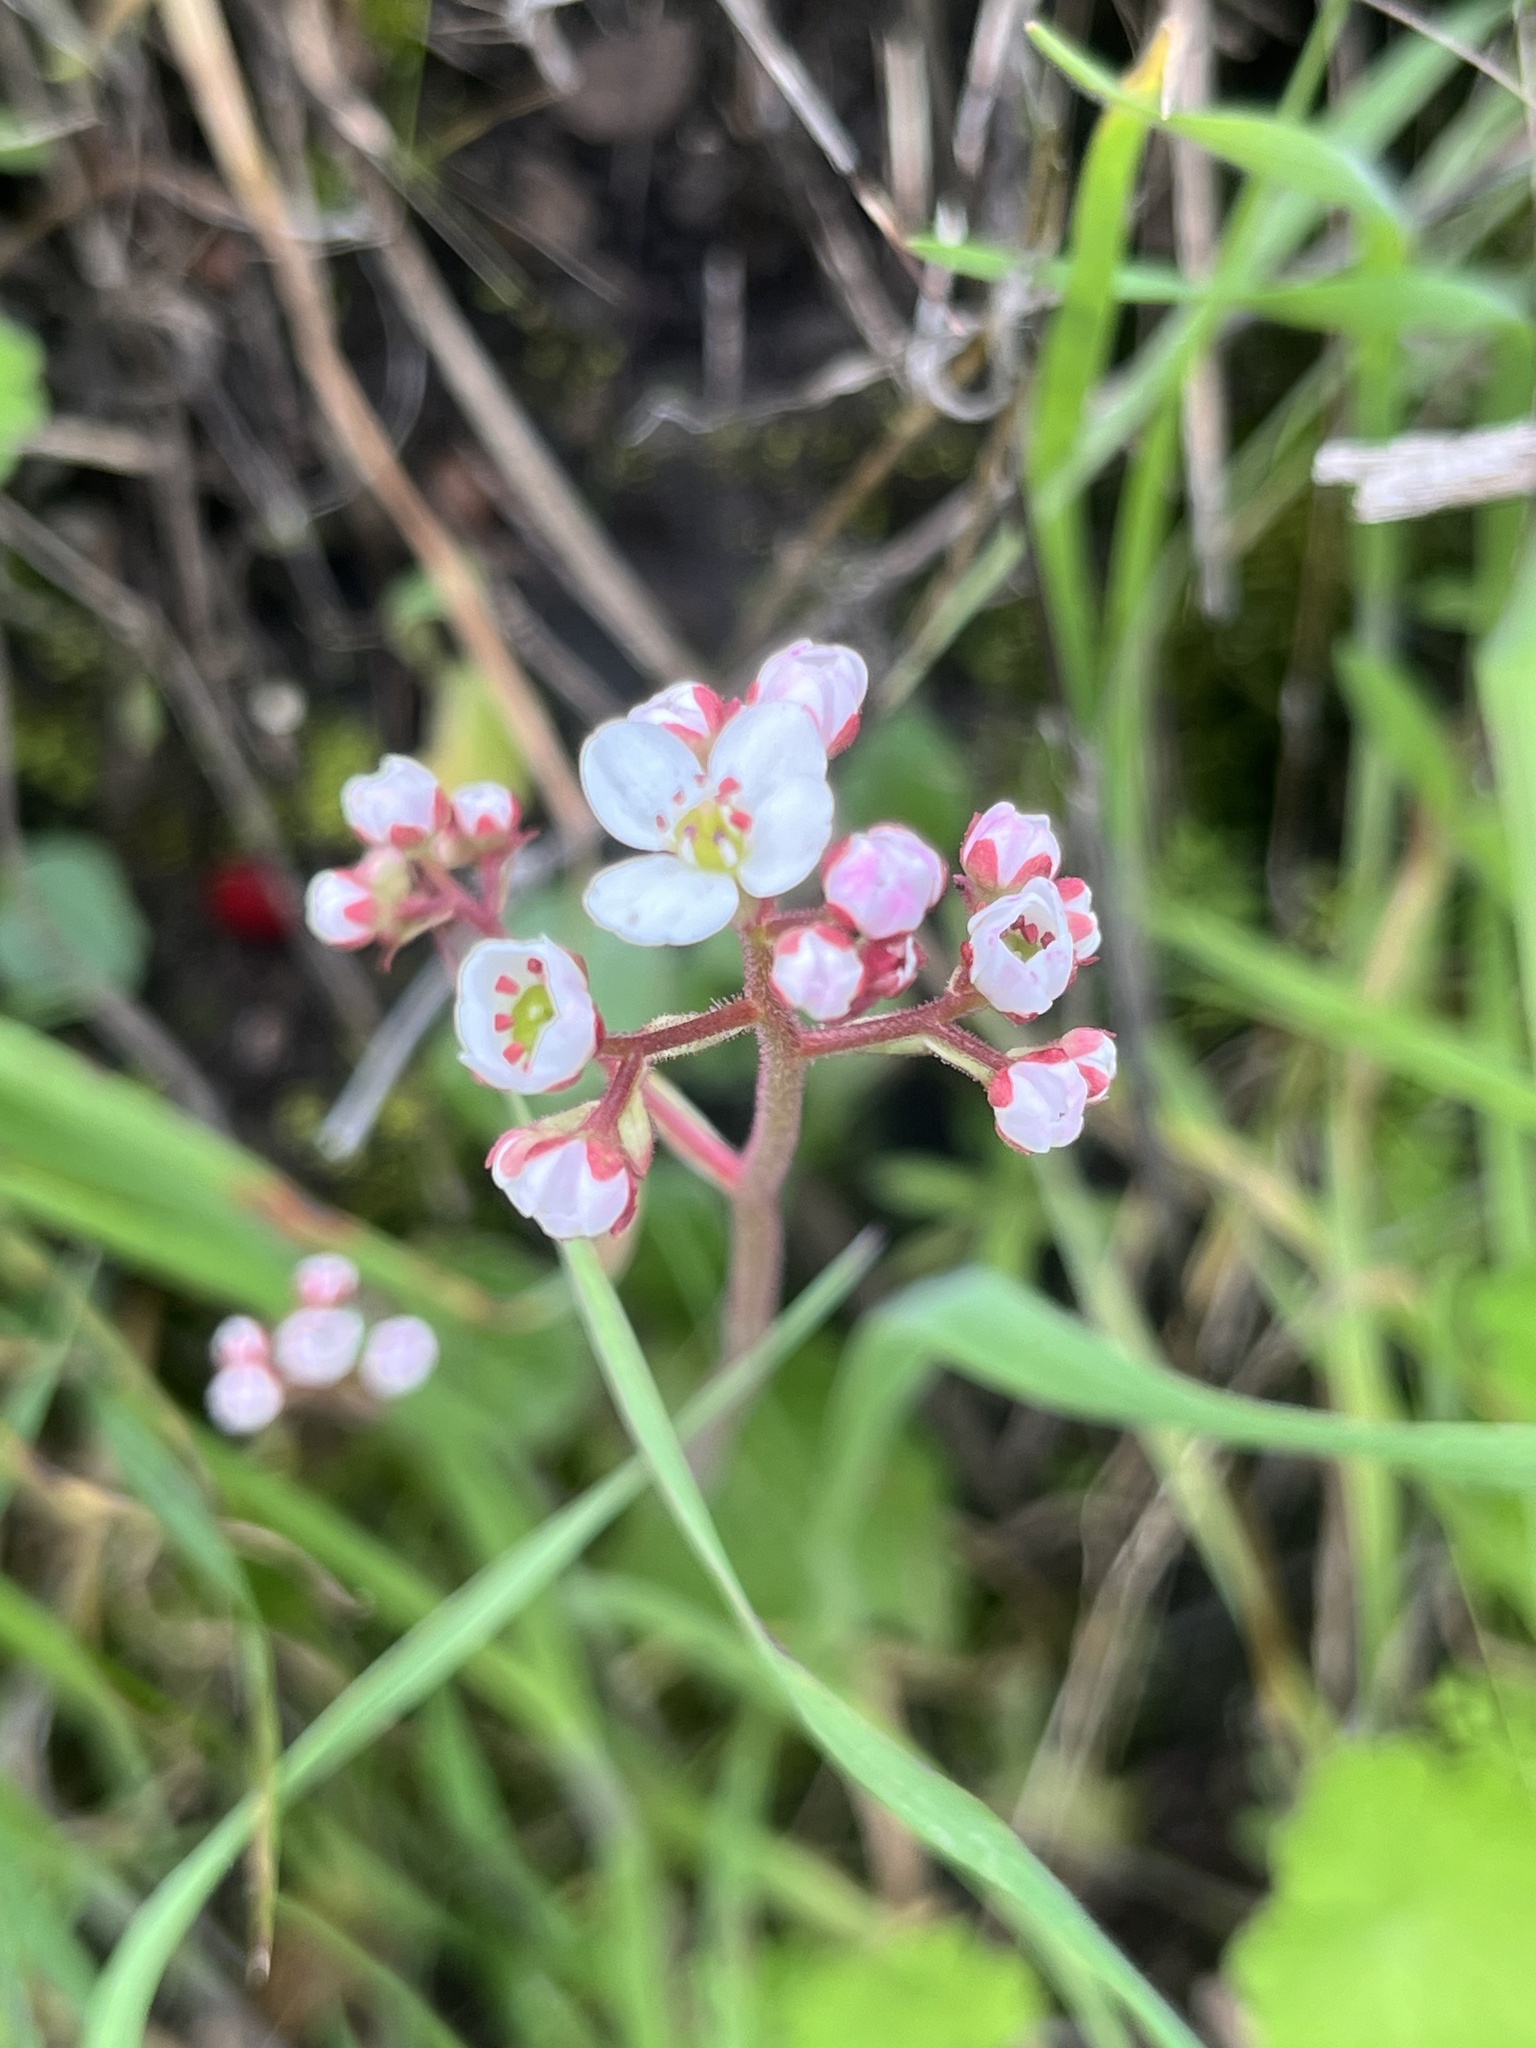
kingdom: Plantae
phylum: Tracheophyta
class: Magnoliopsida
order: Saxifragales
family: Saxifragaceae
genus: Micranthes
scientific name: Micranthes californica
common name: California saxifrage
